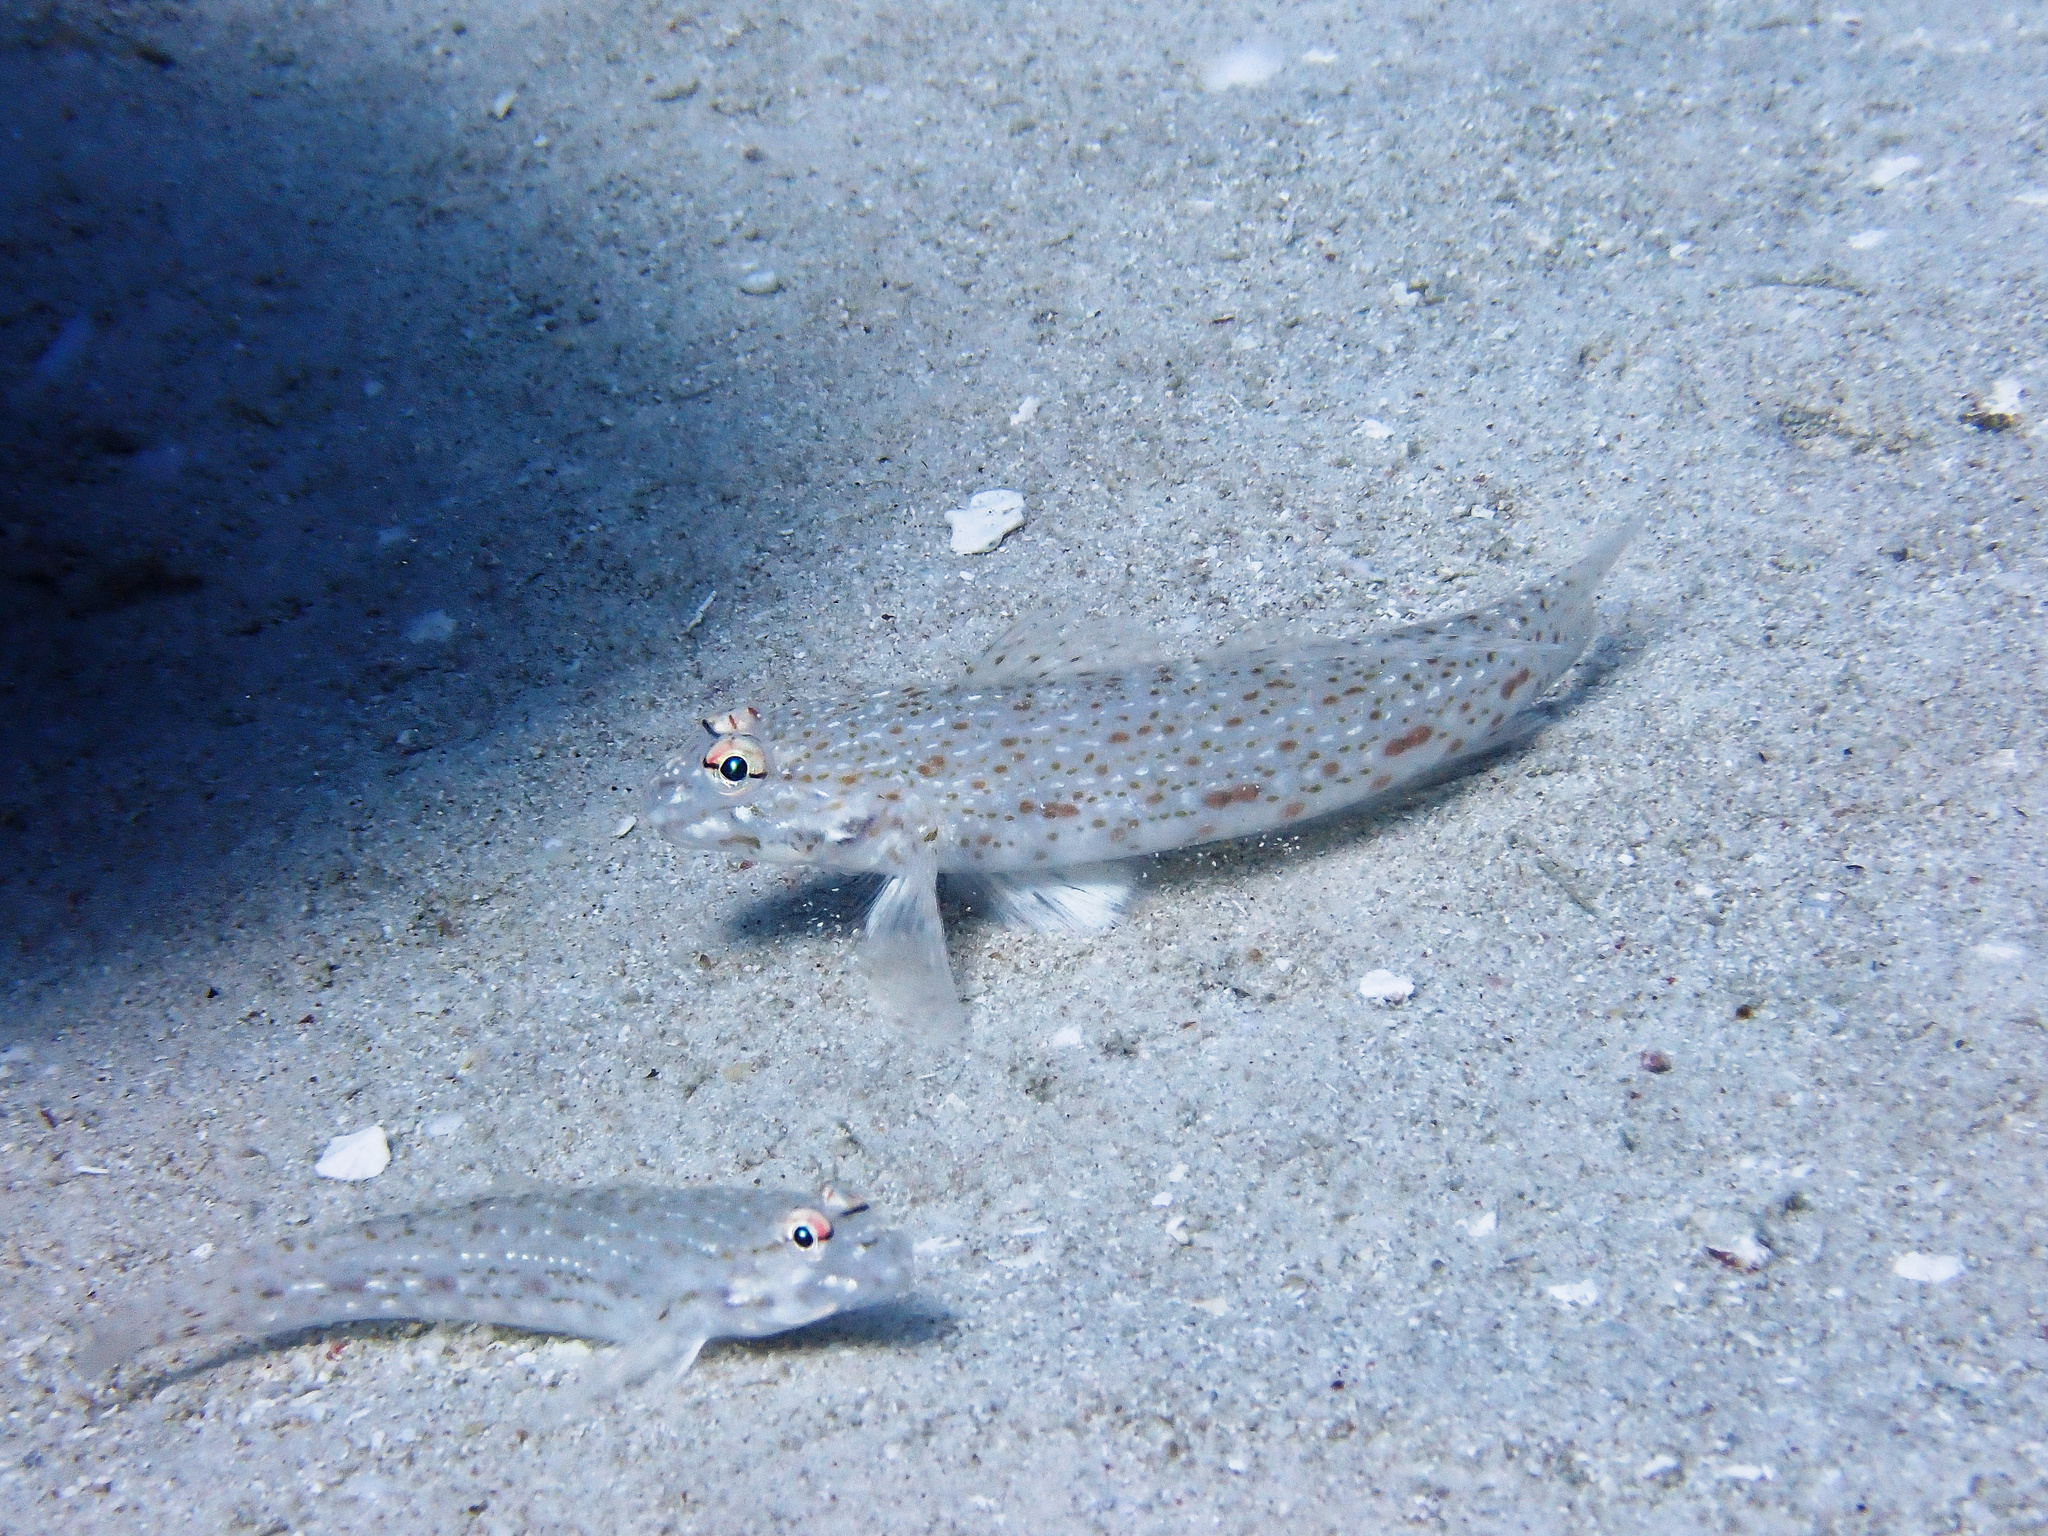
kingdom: Animalia
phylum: Chordata
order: Perciformes
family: Gobiidae
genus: Istigobius
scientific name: Istigobius rigilius
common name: Rigilius goby
